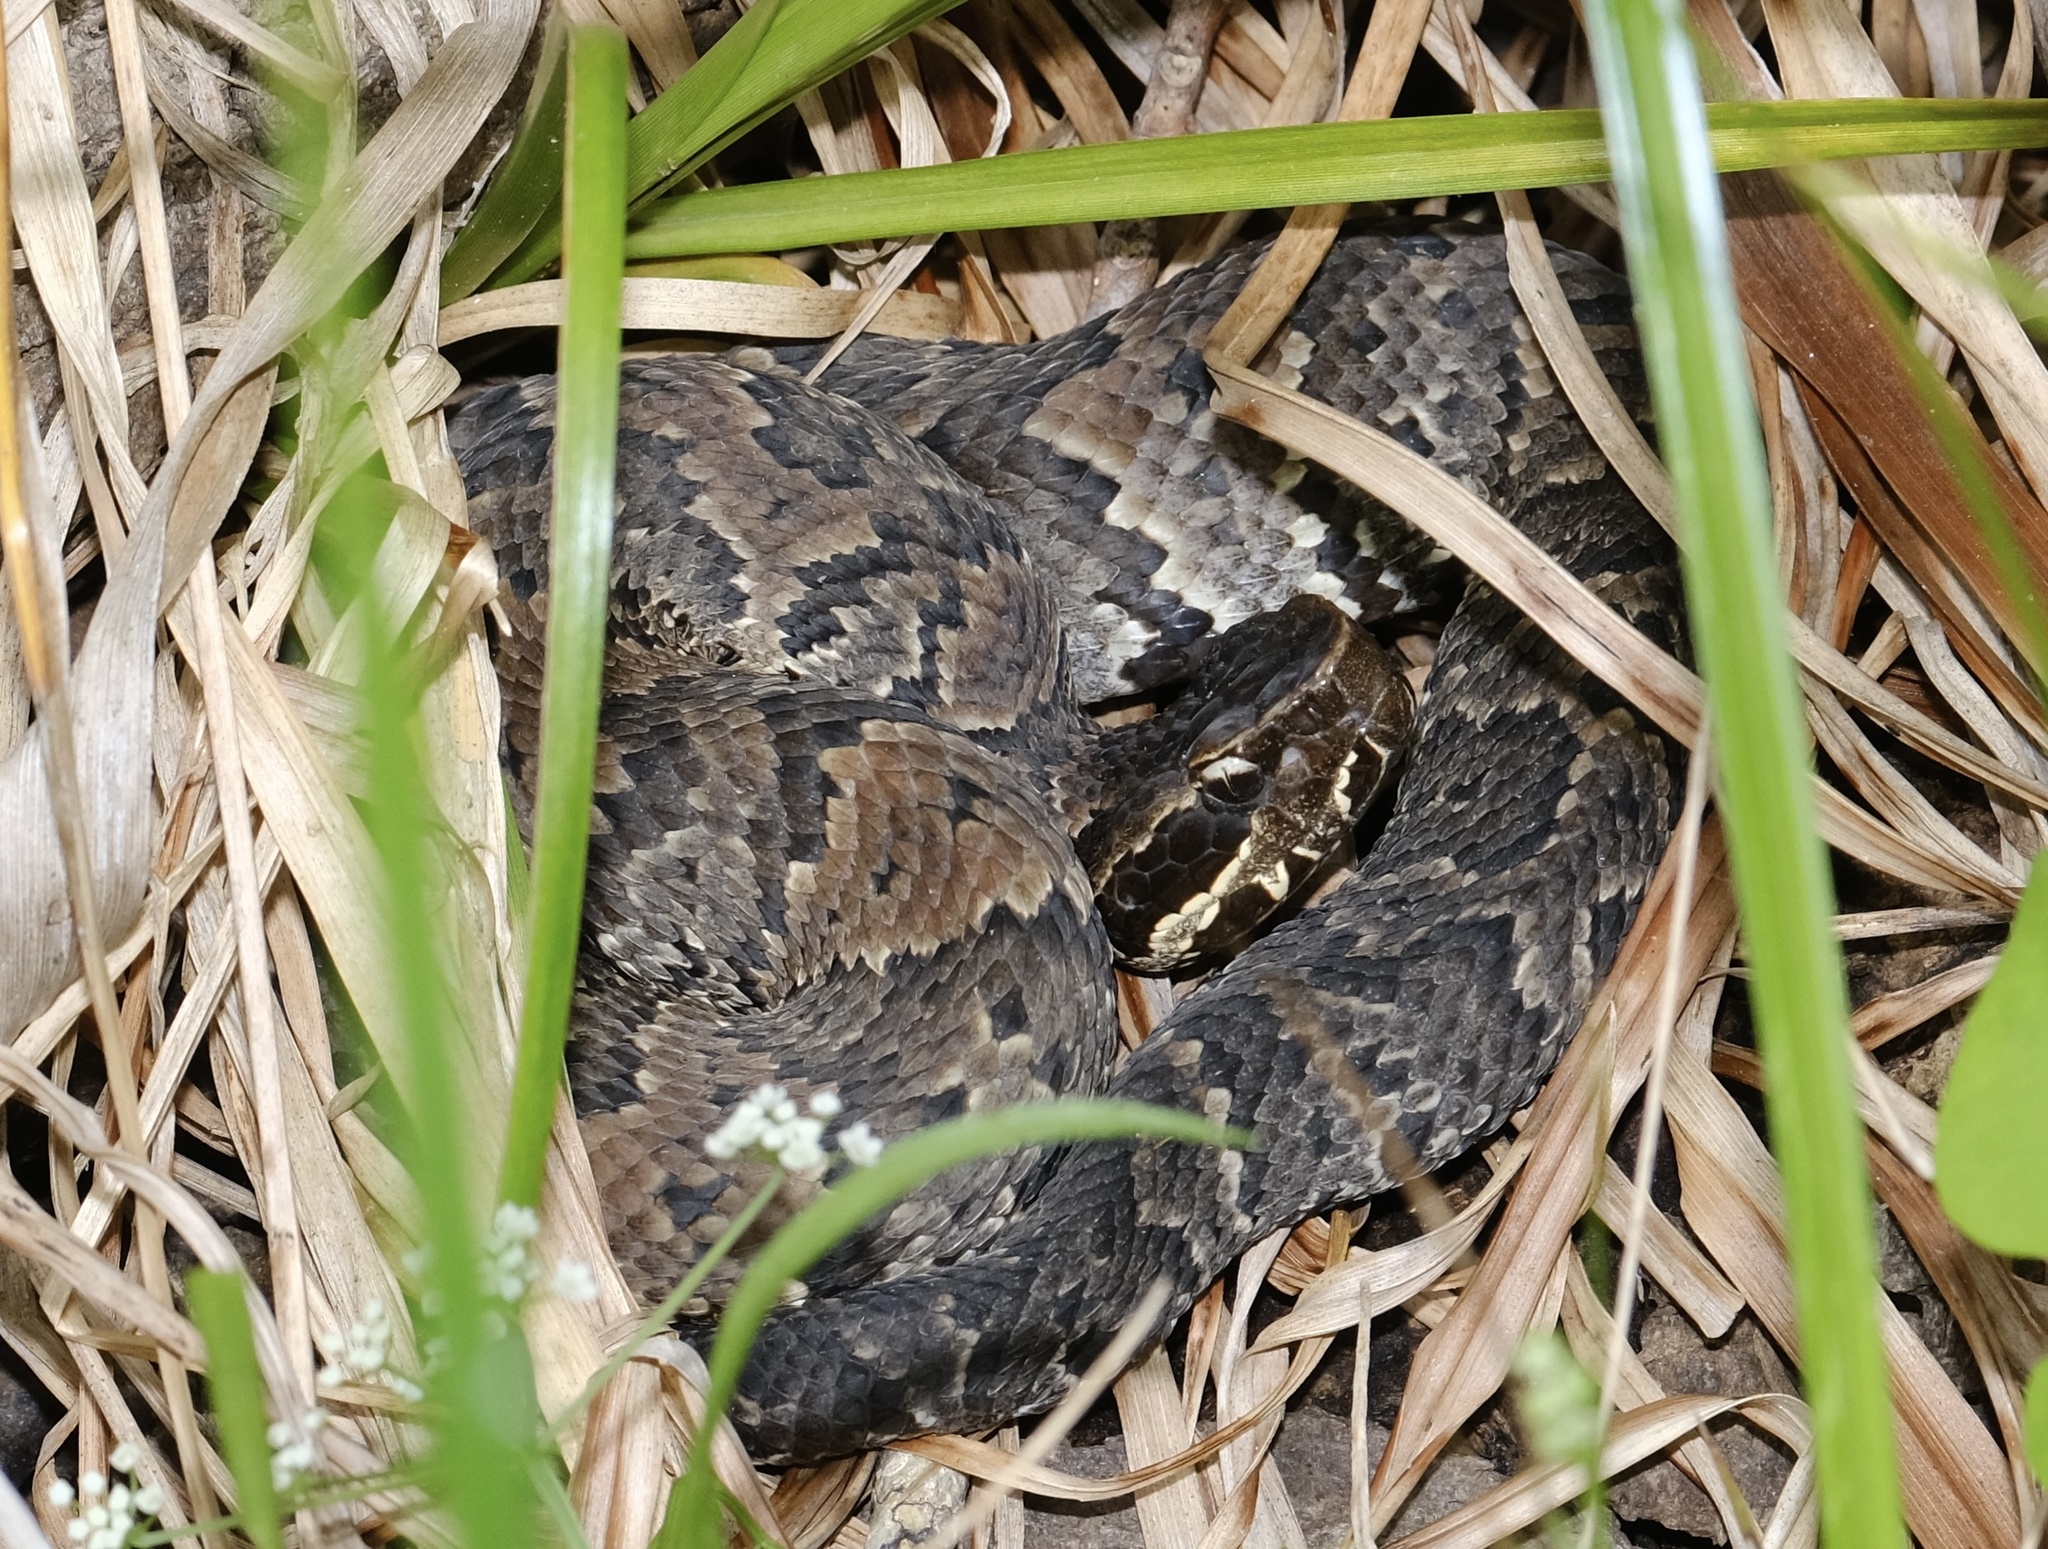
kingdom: Animalia
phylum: Chordata
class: Squamata
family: Viperidae
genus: Agkistrodon
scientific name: Agkistrodon piscivorus
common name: Cottonmouth
